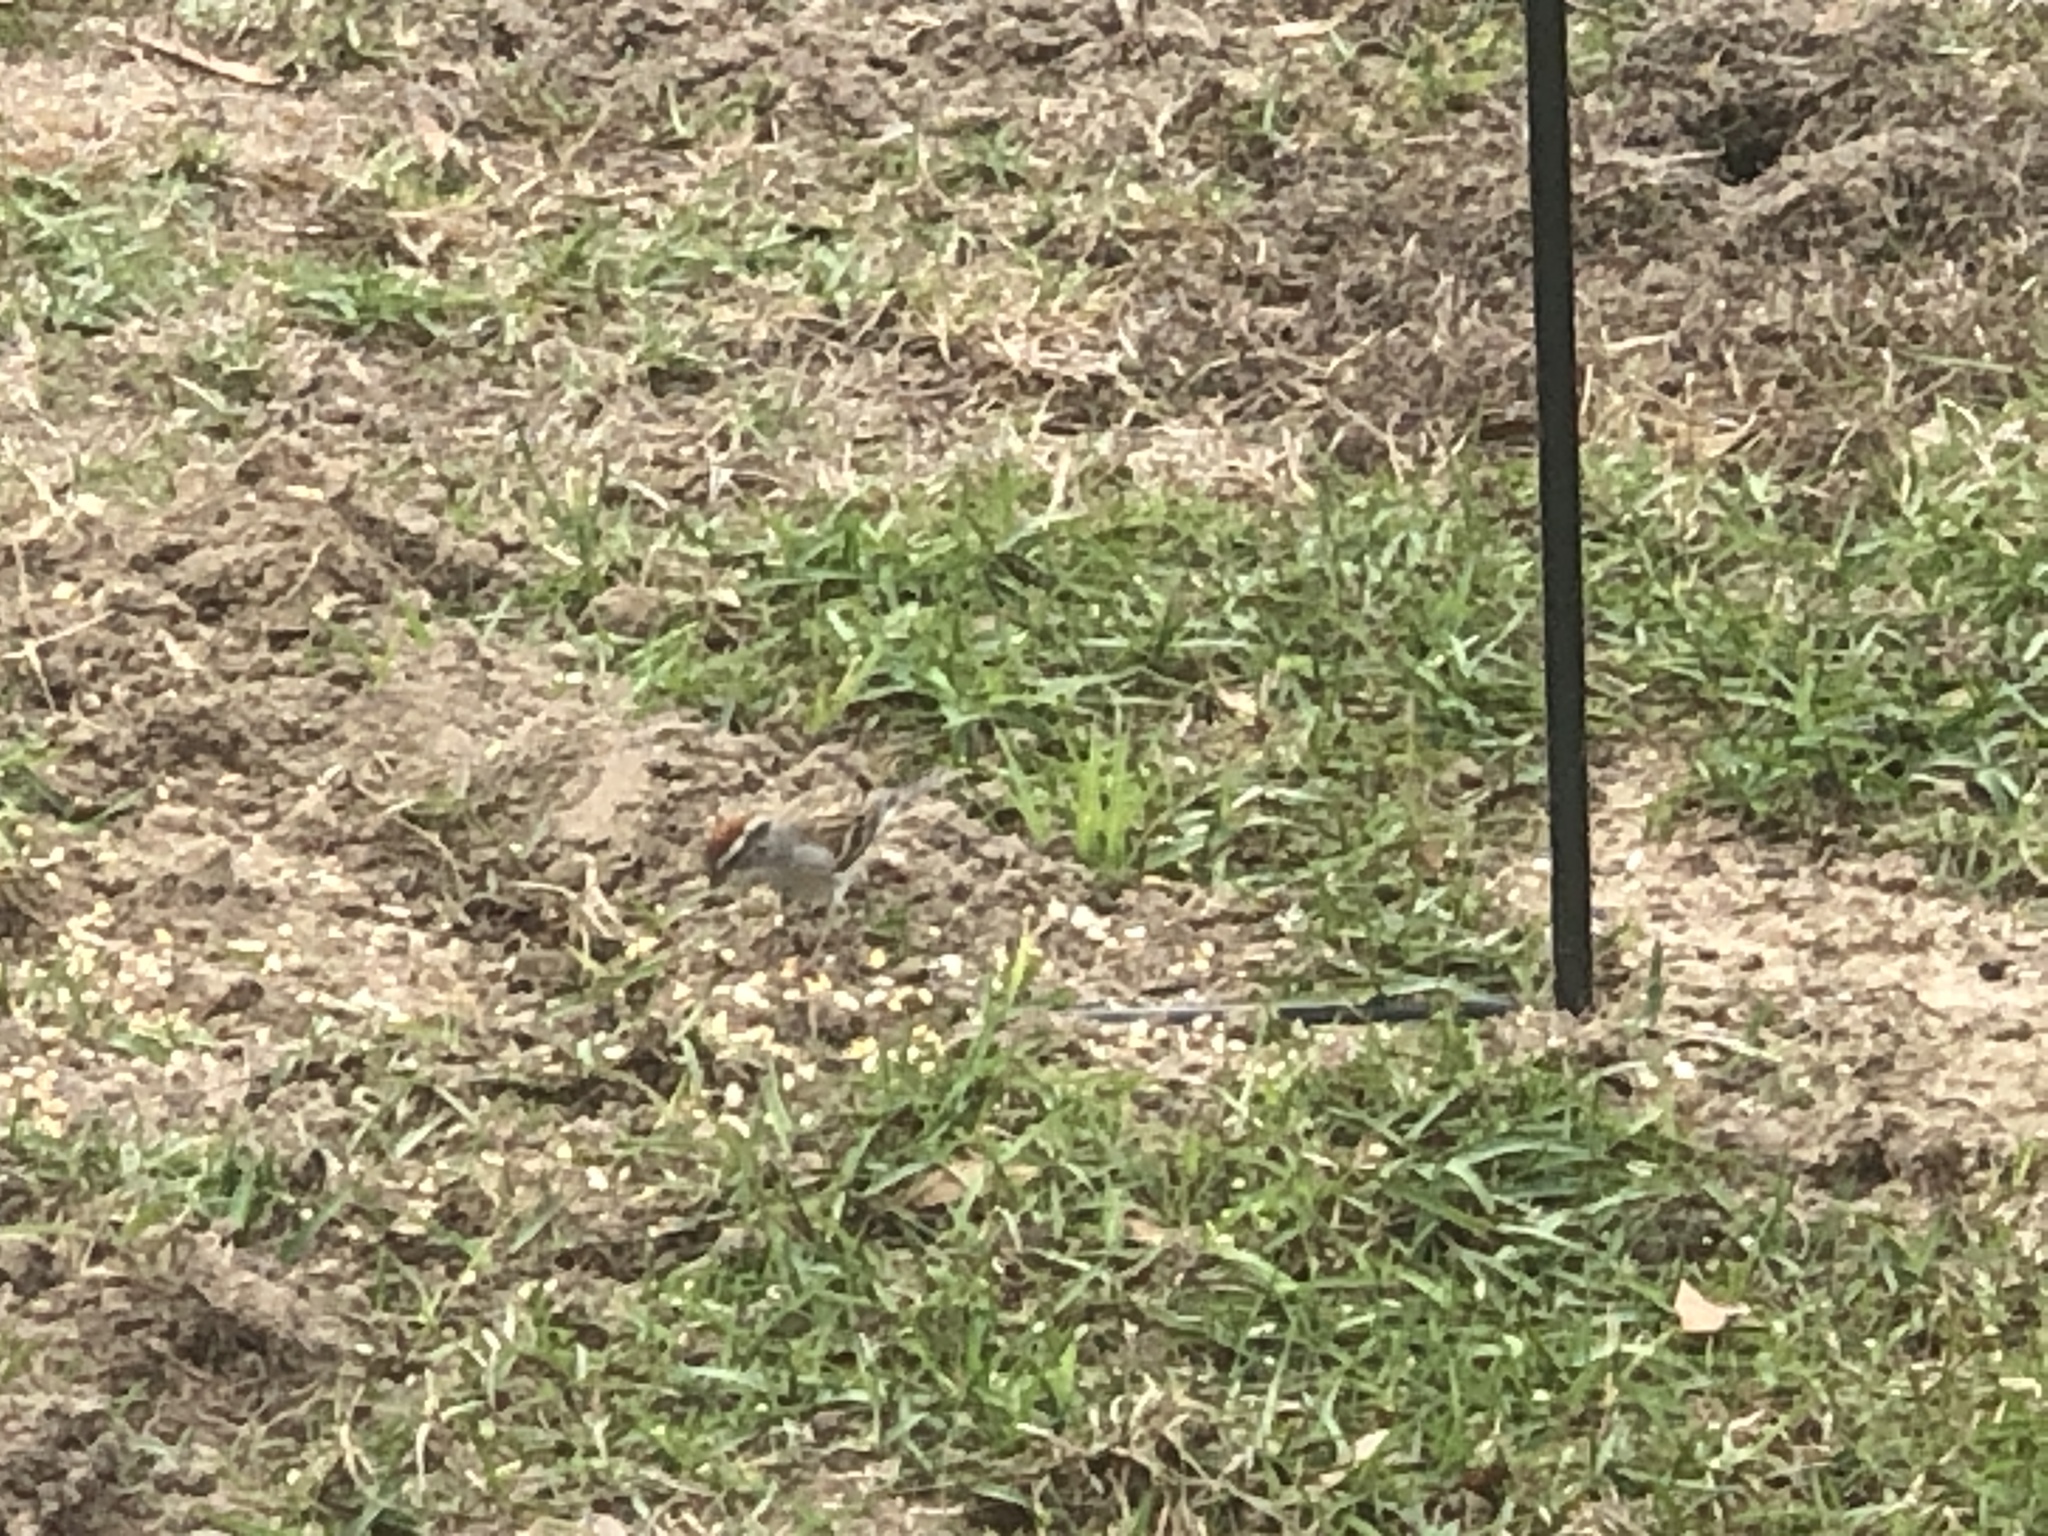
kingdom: Animalia
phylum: Chordata
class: Aves
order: Passeriformes
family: Passerellidae
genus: Spizella
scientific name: Spizella passerina
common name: Chipping sparrow
